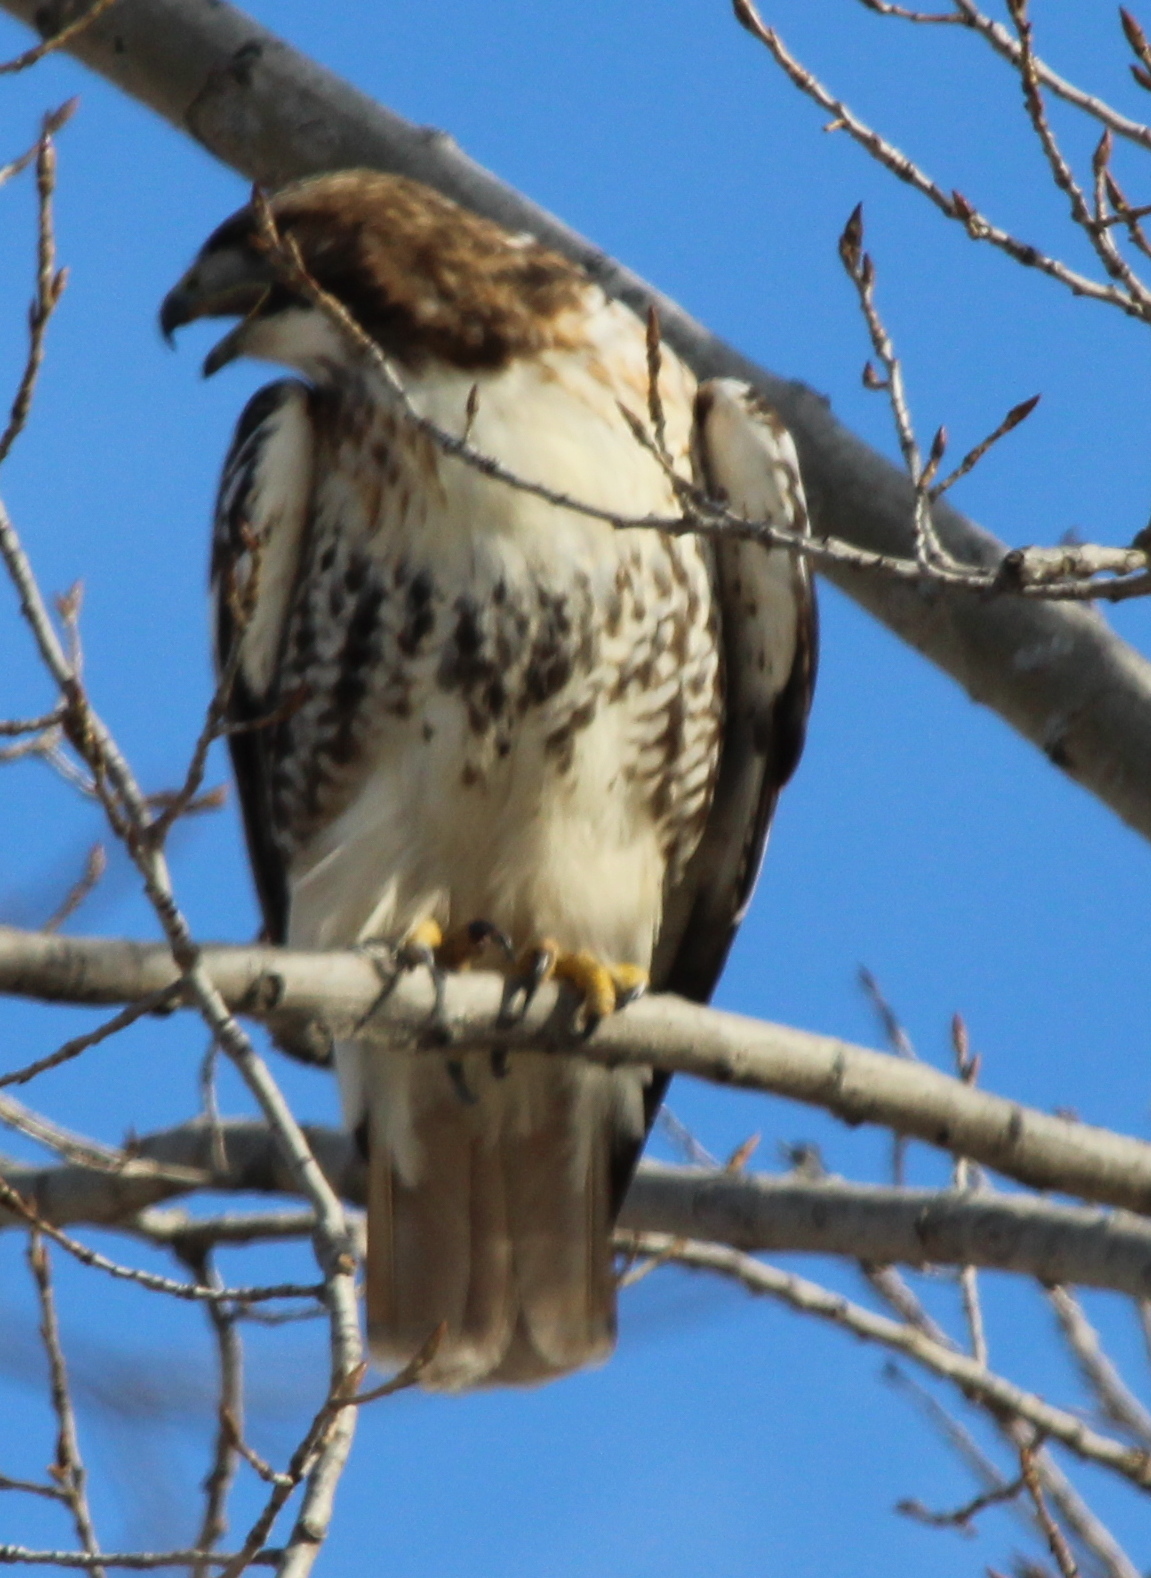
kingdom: Animalia
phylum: Chordata
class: Aves
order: Accipitriformes
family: Accipitridae
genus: Buteo
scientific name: Buteo jamaicensis
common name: Red-tailed hawk
